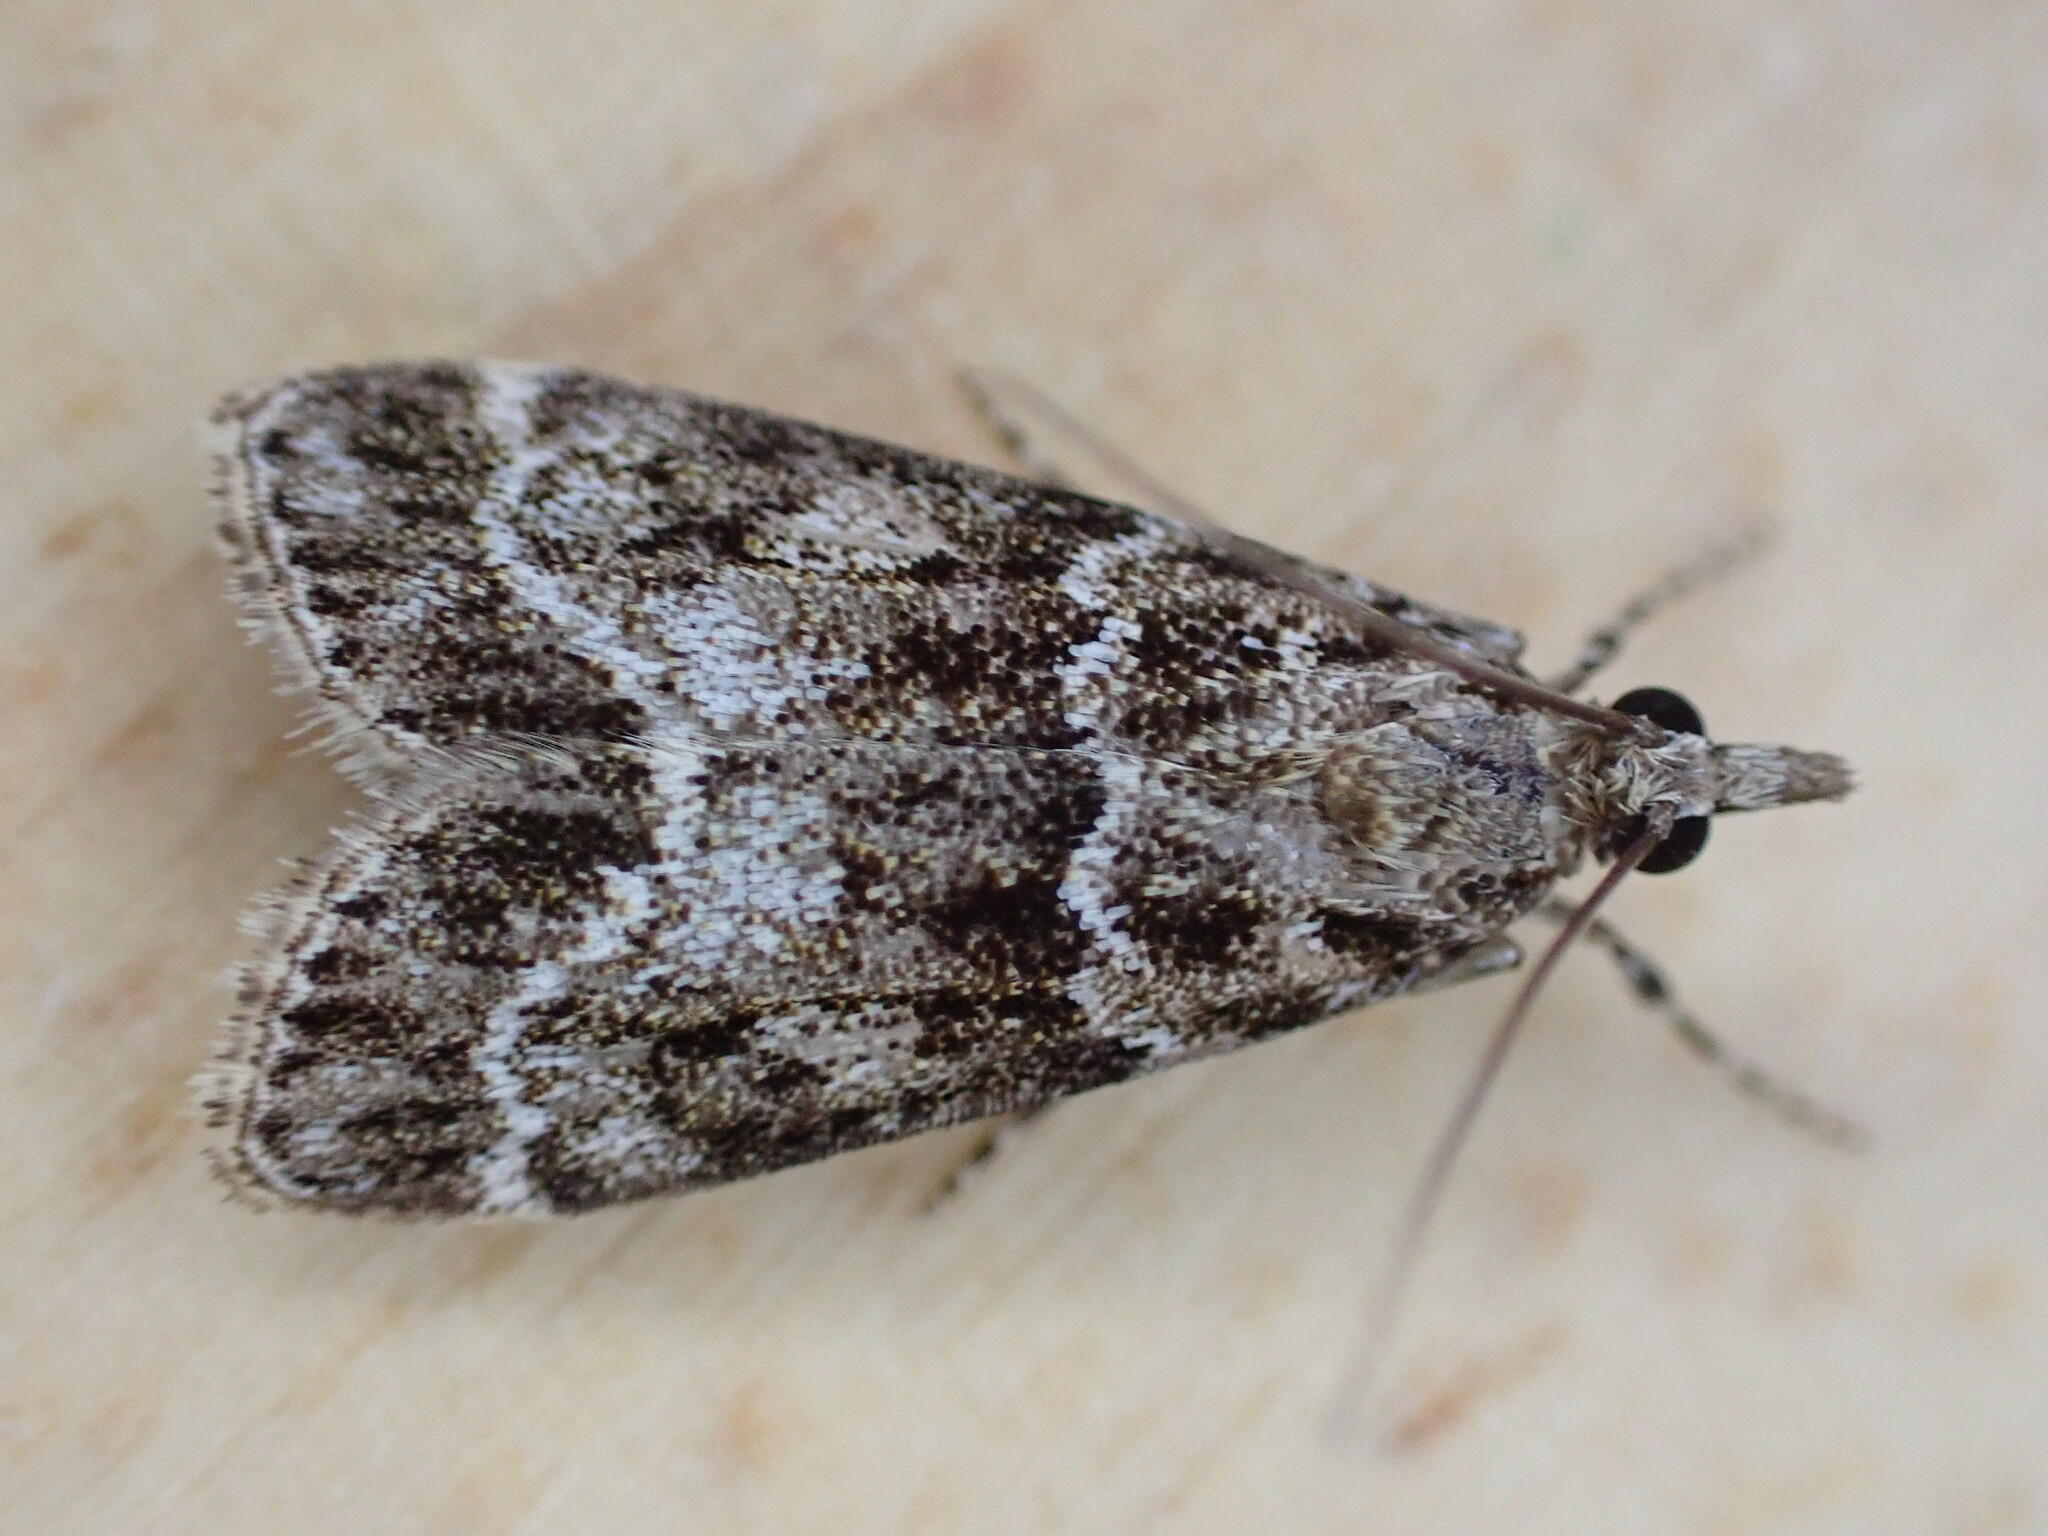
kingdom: Animalia
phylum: Arthropoda
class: Insecta
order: Lepidoptera
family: Crambidae
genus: Eudonia
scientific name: Eudonia mercurella
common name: Small grey
